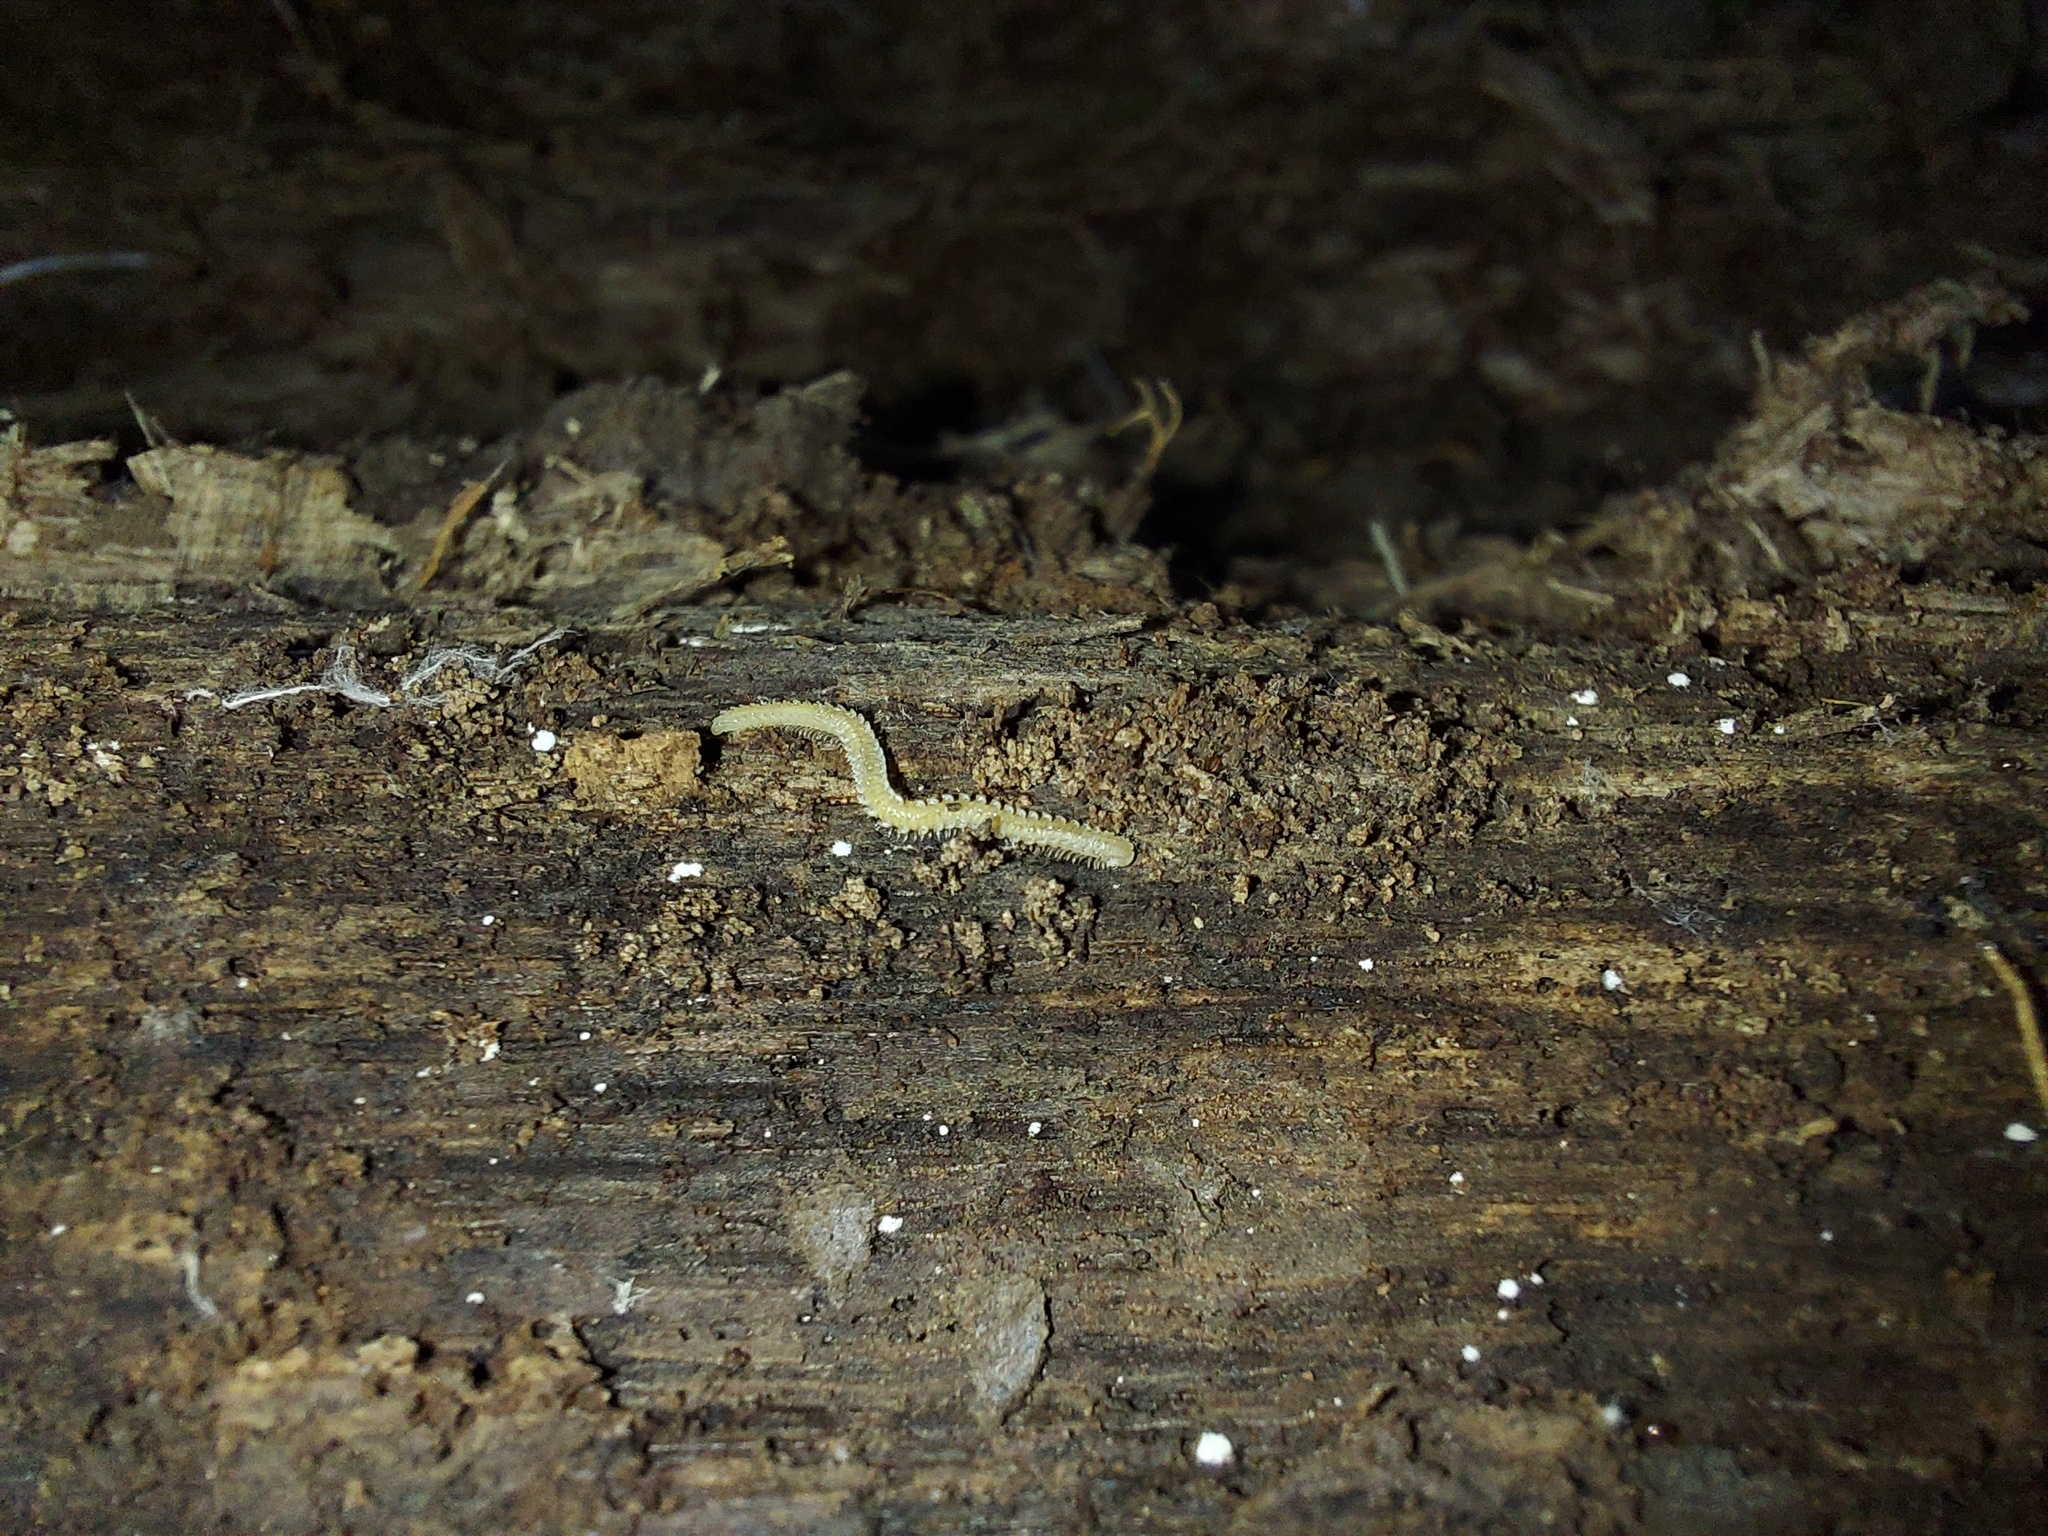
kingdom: Animalia
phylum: Arthropoda
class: Diplopoda
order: Platydesmida
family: Andrognathidae
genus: Andrognathus
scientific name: Andrognathus corticarius
